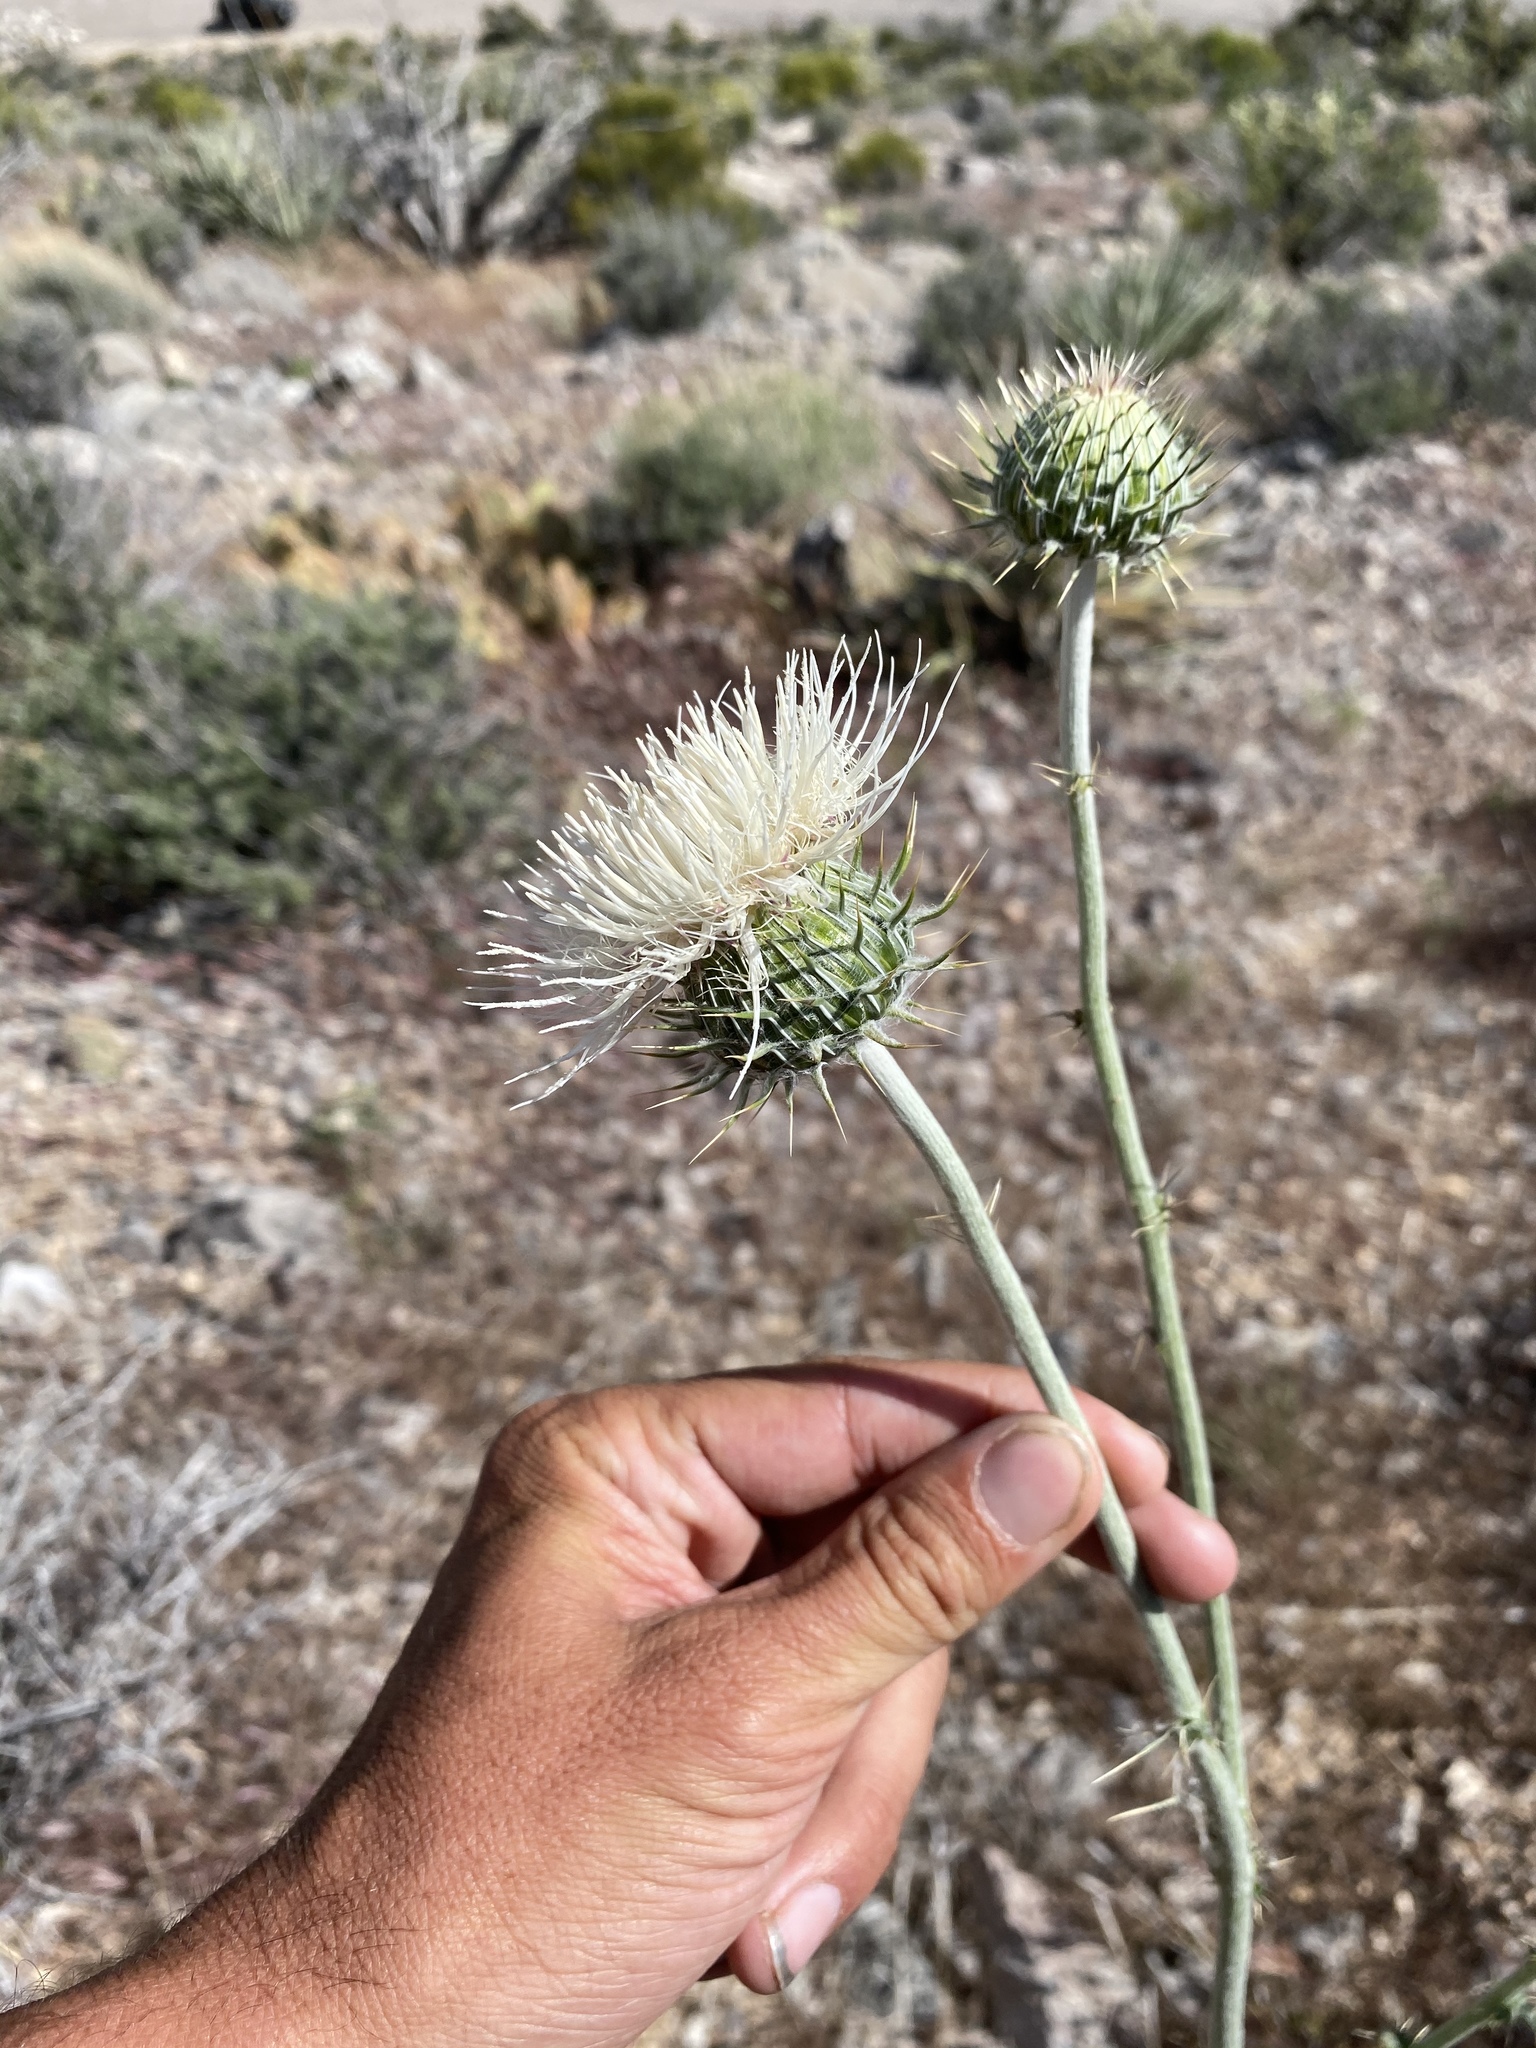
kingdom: Plantae
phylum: Tracheophyta
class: Magnoliopsida
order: Asterales
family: Asteraceae
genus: Cirsium
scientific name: Cirsium neomexicanum
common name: New mexico thistle
